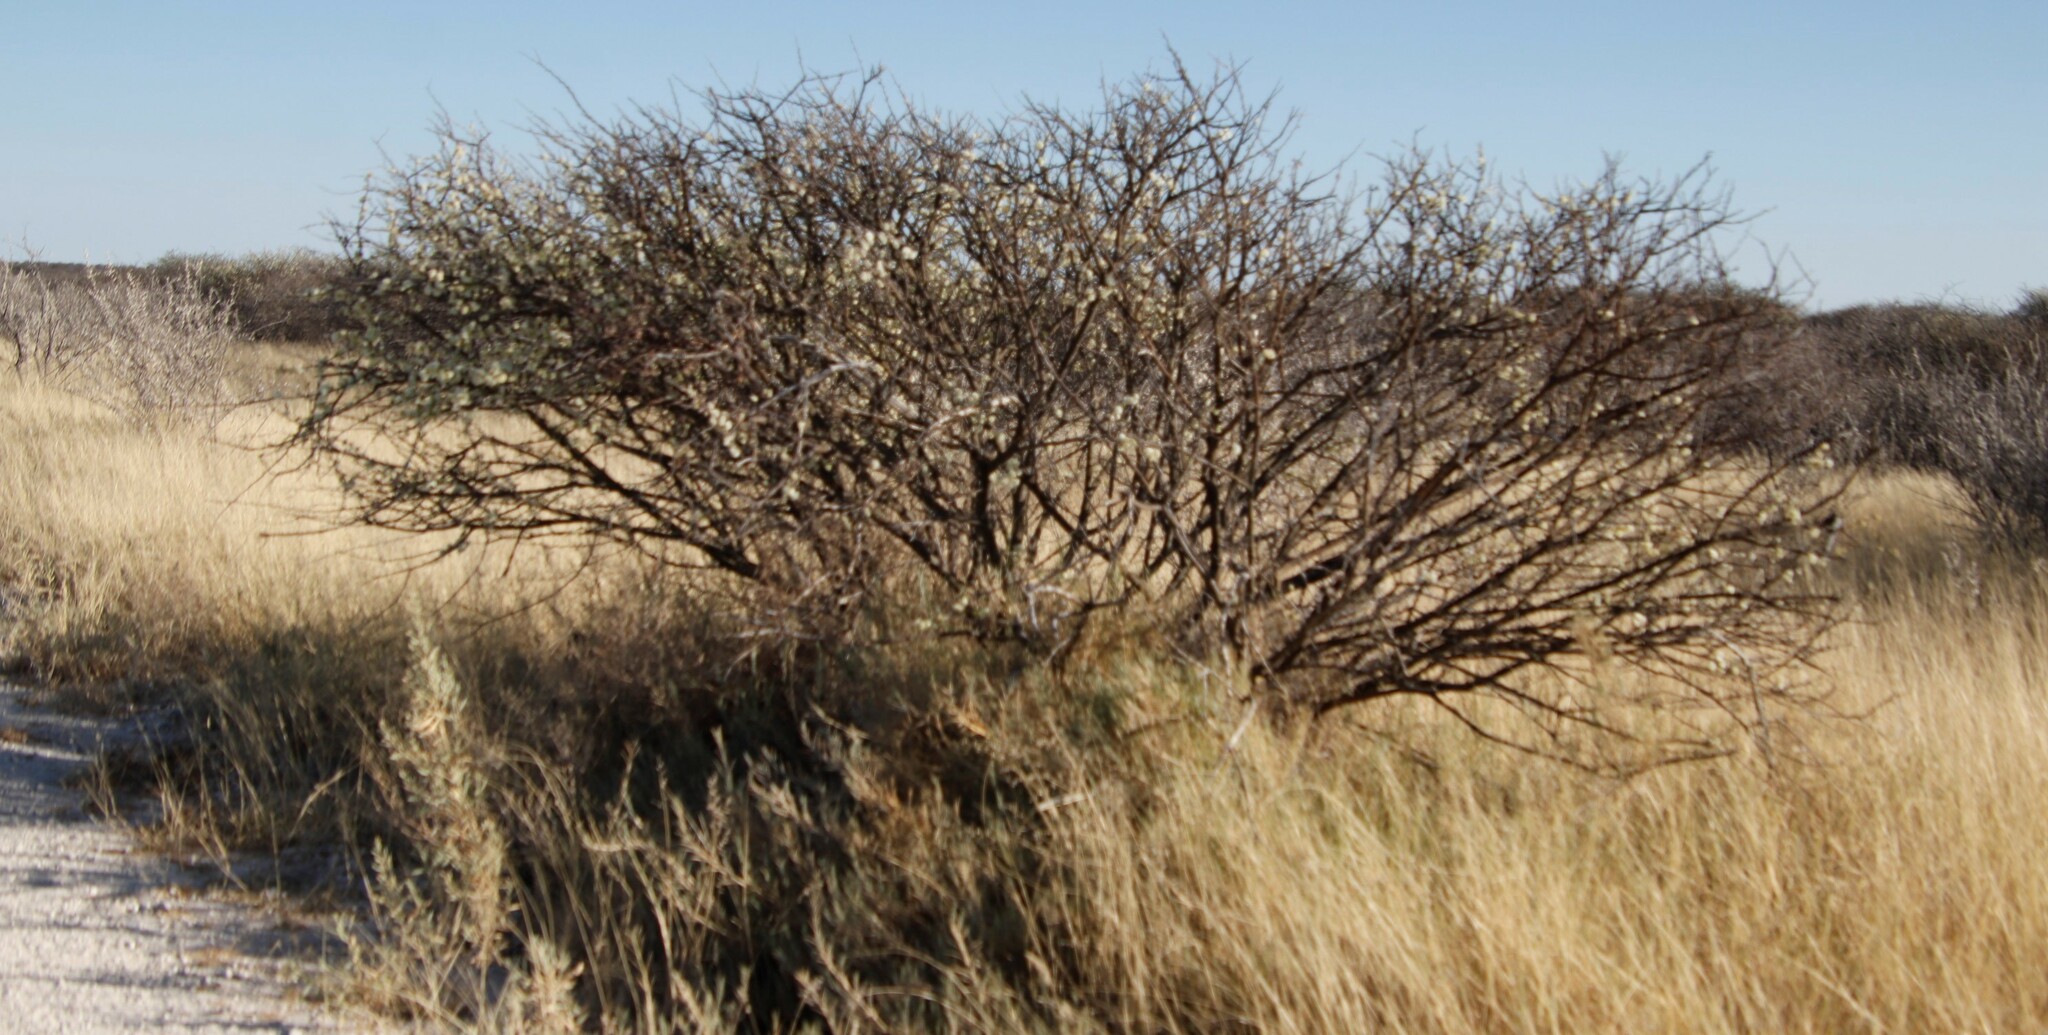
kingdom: Plantae
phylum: Tracheophyta
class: Magnoliopsida
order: Fabales
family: Fabaceae
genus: Senegalia
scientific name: Senegalia mellifera
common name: Hookthorn
